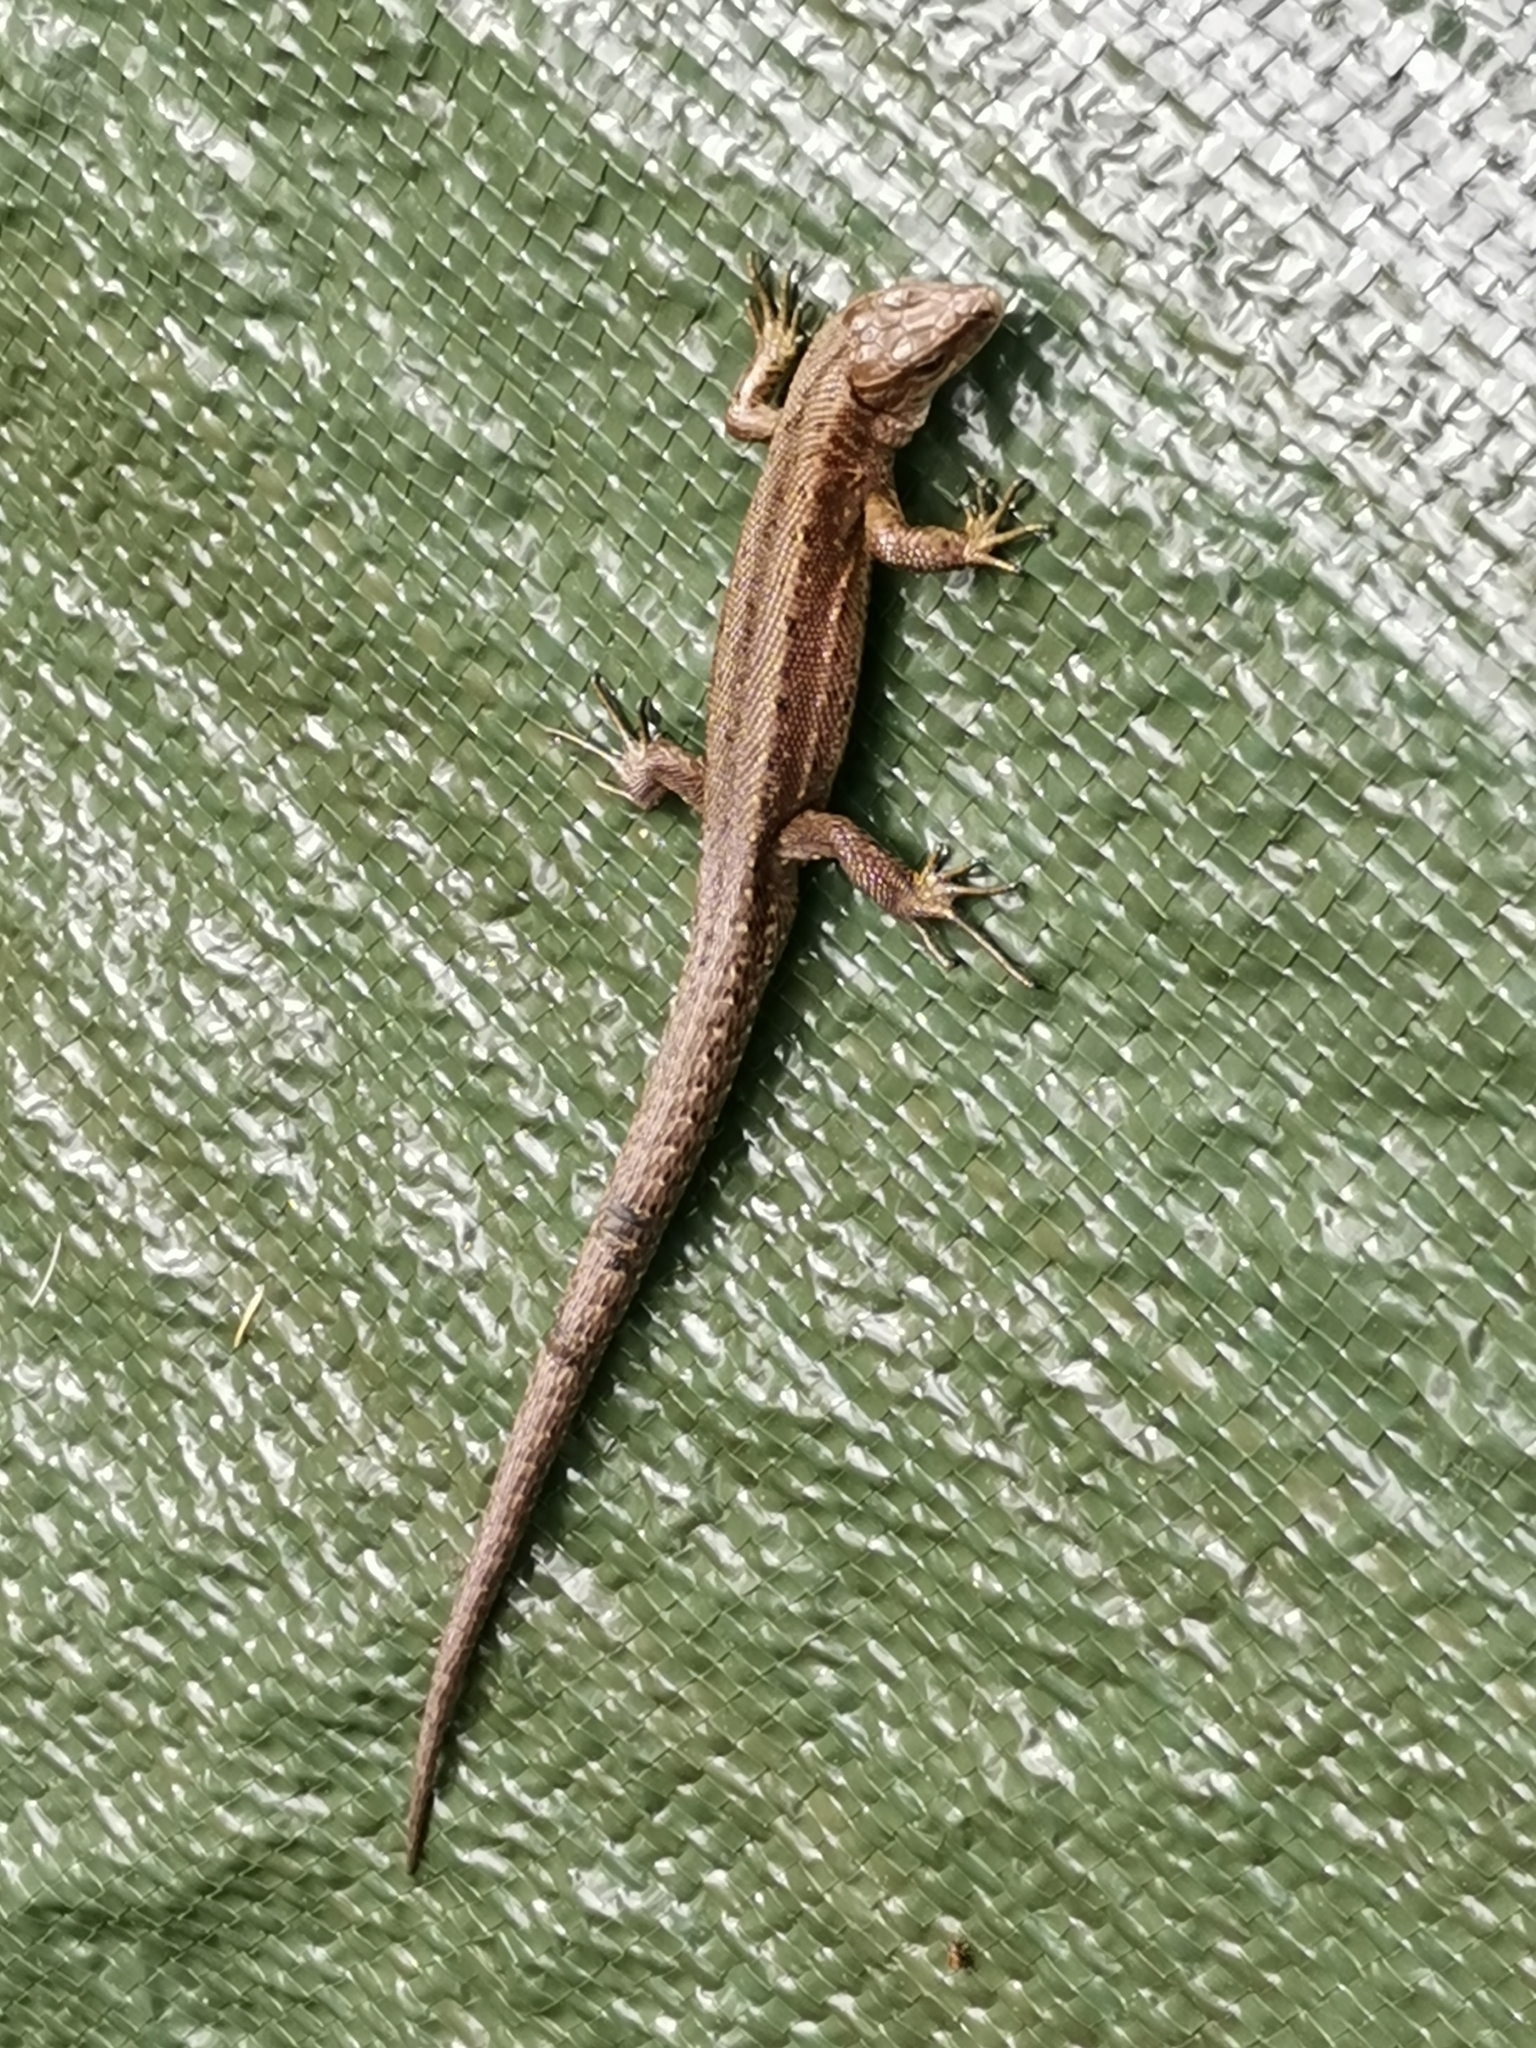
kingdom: Animalia
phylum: Chordata
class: Squamata
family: Lacertidae
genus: Zootoca
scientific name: Zootoca vivipara
